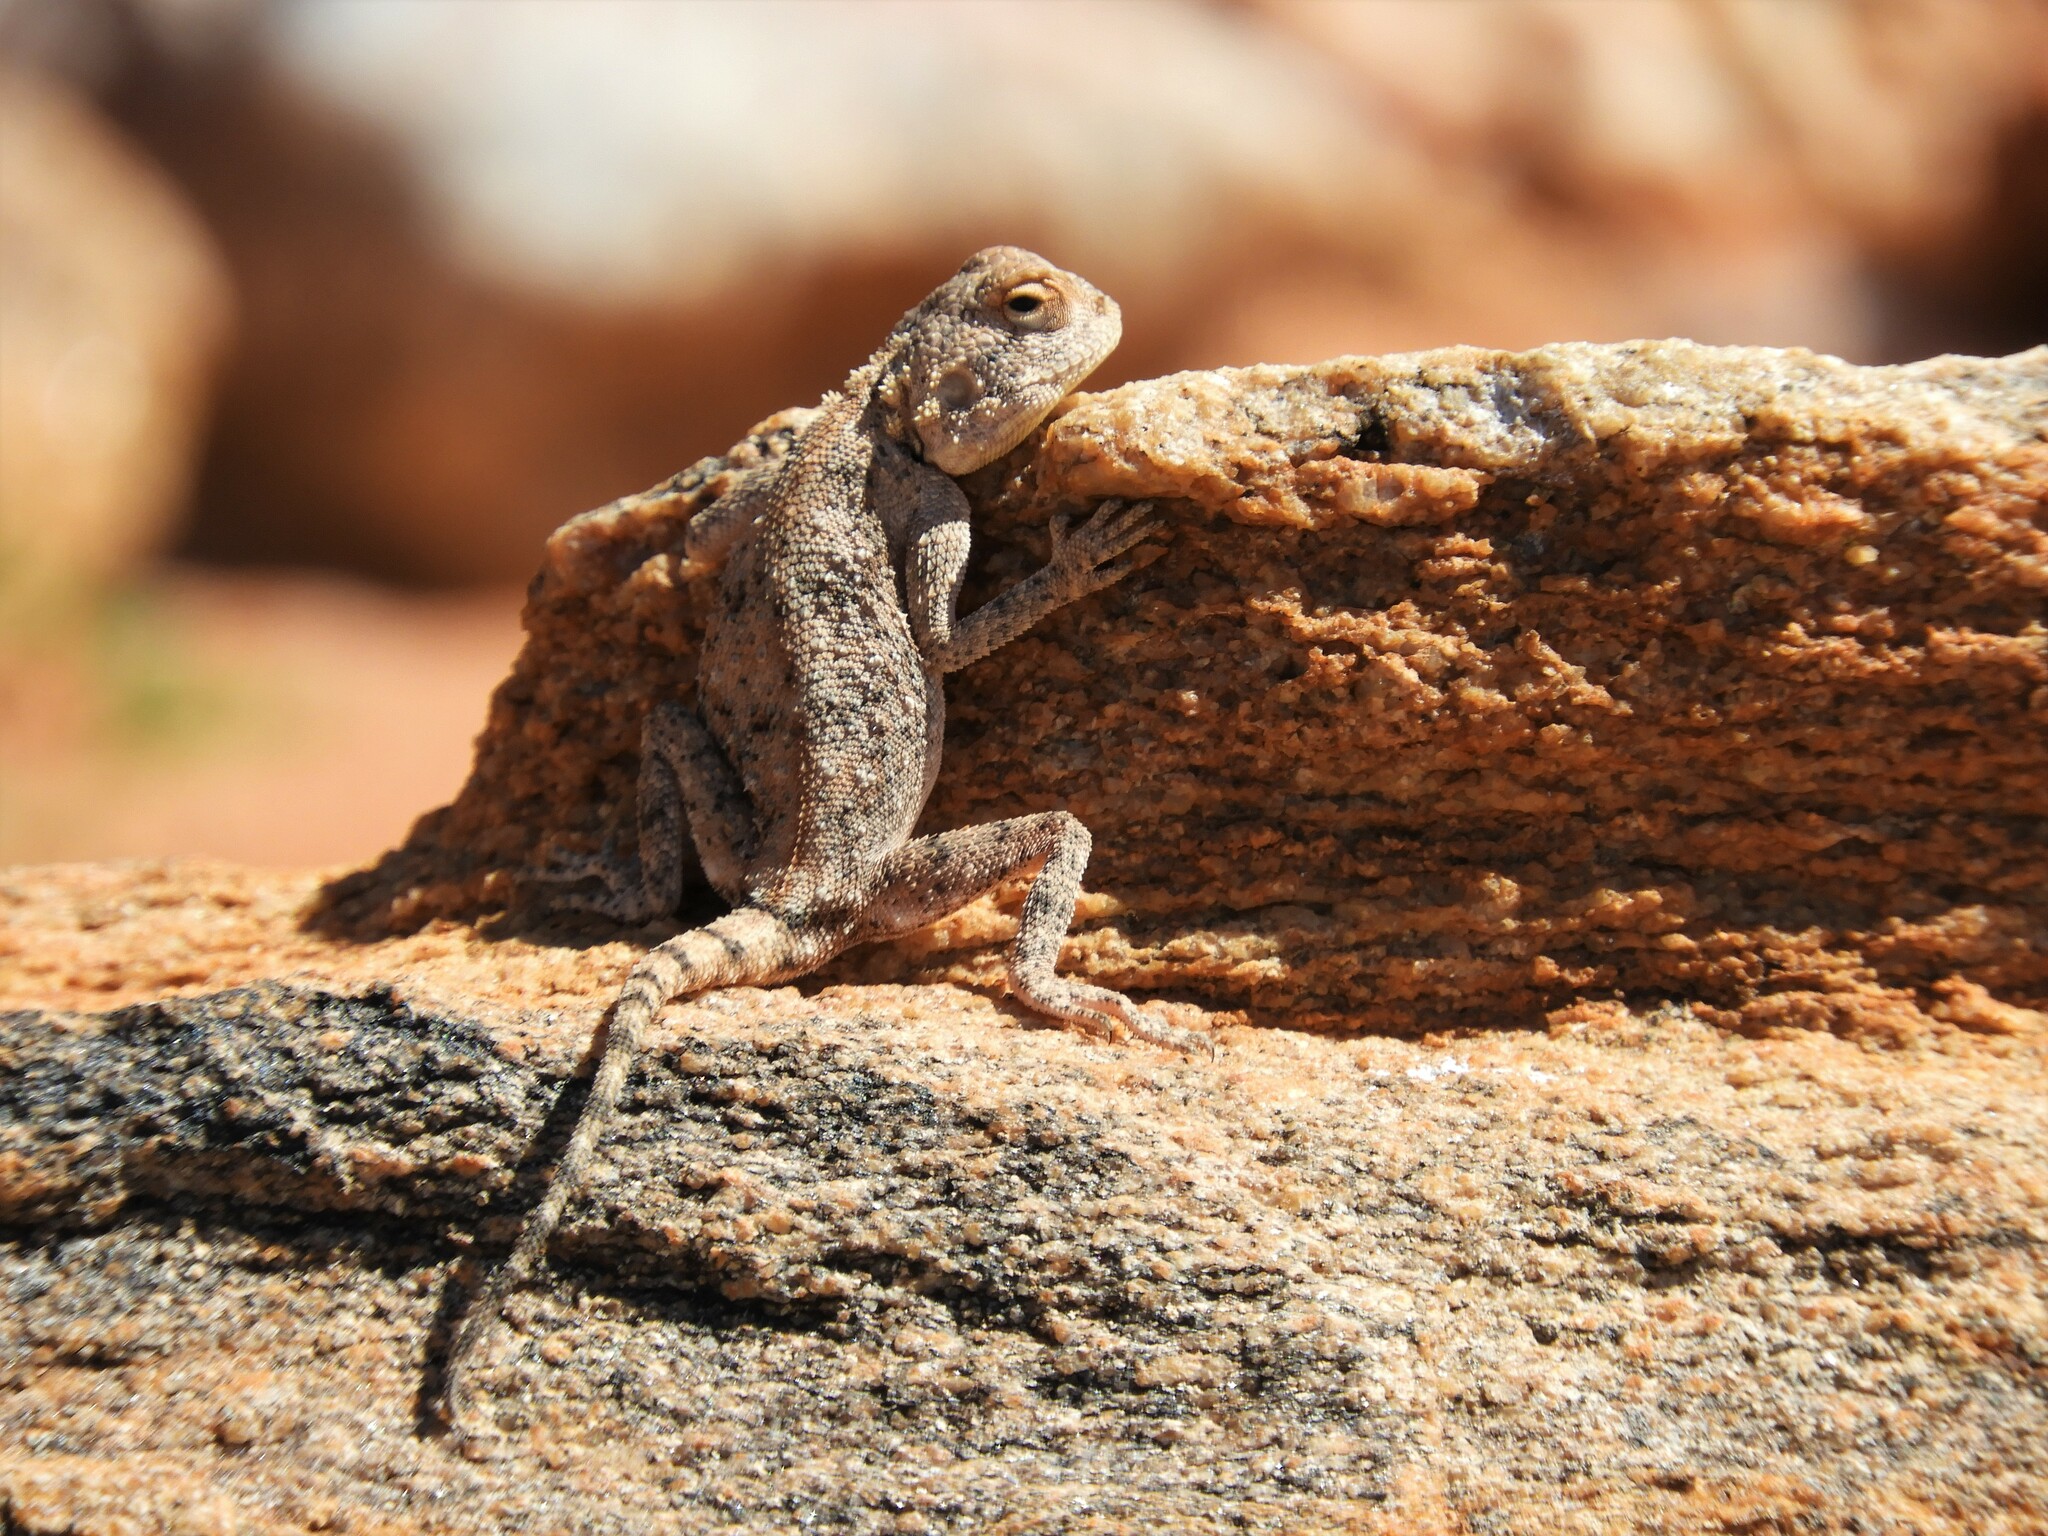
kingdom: Animalia
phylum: Chordata
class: Squamata
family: Agamidae
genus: Agama
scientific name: Agama anchietae
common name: Anchieta's agama
